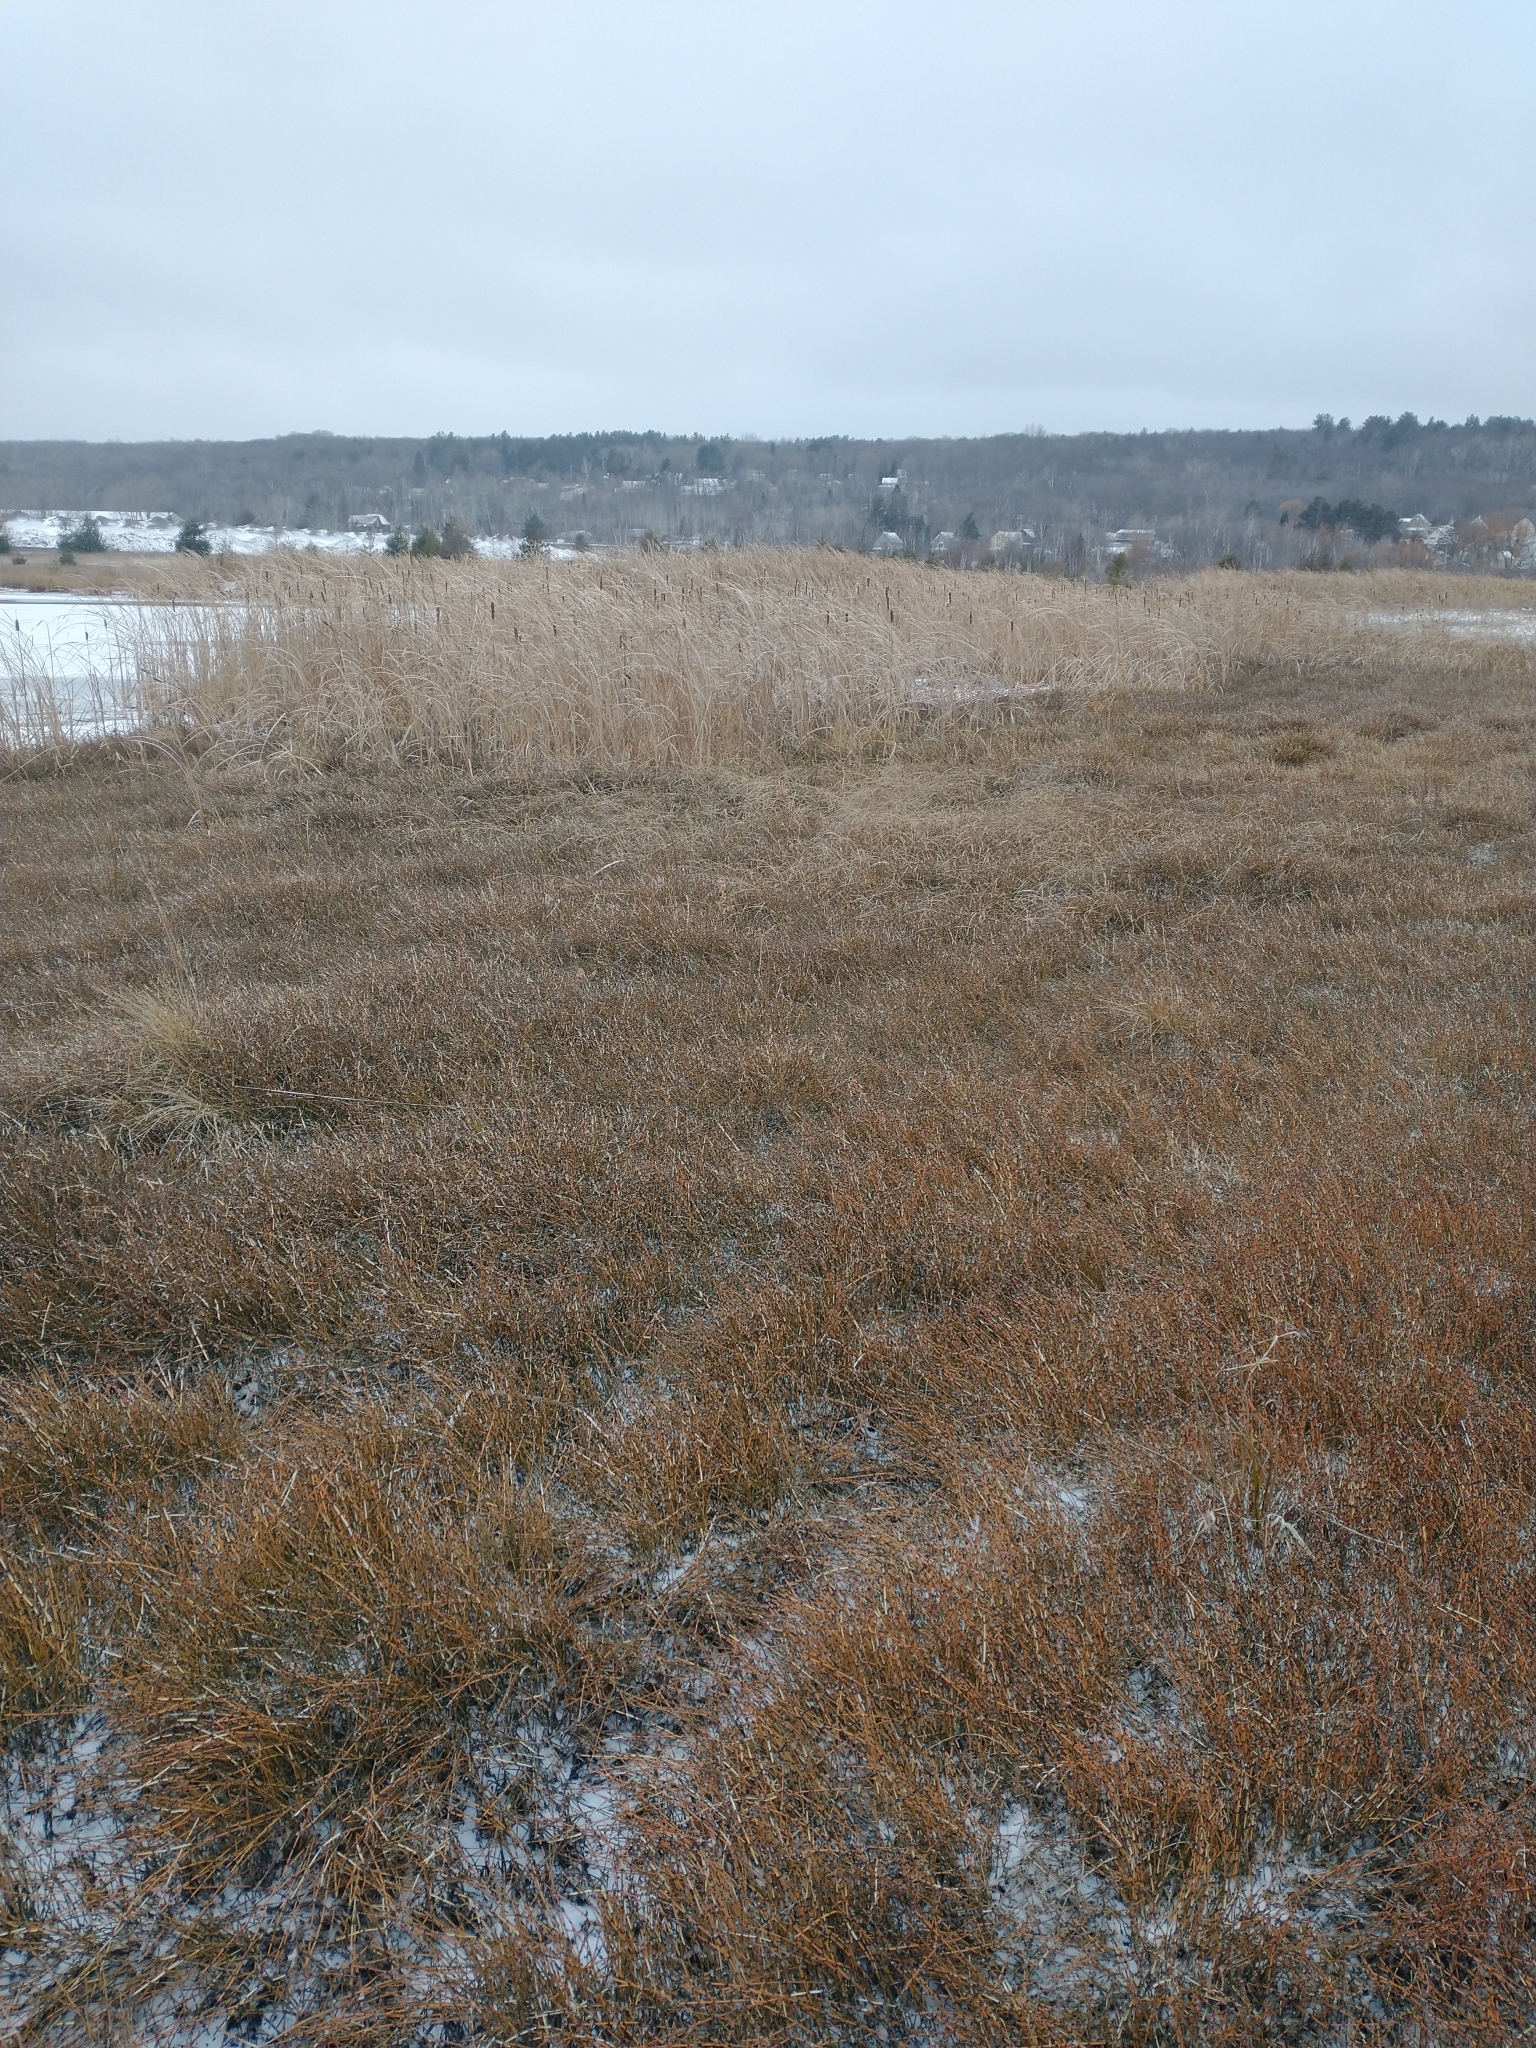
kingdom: Plantae
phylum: Tracheophyta
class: Polypodiopsida
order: Equisetales
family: Equisetaceae
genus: Equisetum
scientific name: Equisetum variegatum
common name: Variegated horsetail
